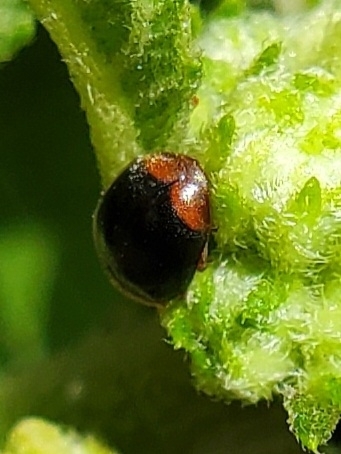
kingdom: Animalia
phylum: Arthropoda
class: Insecta
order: Coleoptera
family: Coccinellidae
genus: Cryptolaemus
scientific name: Cryptolaemus montrouzieri
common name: Mealybug destroyer
